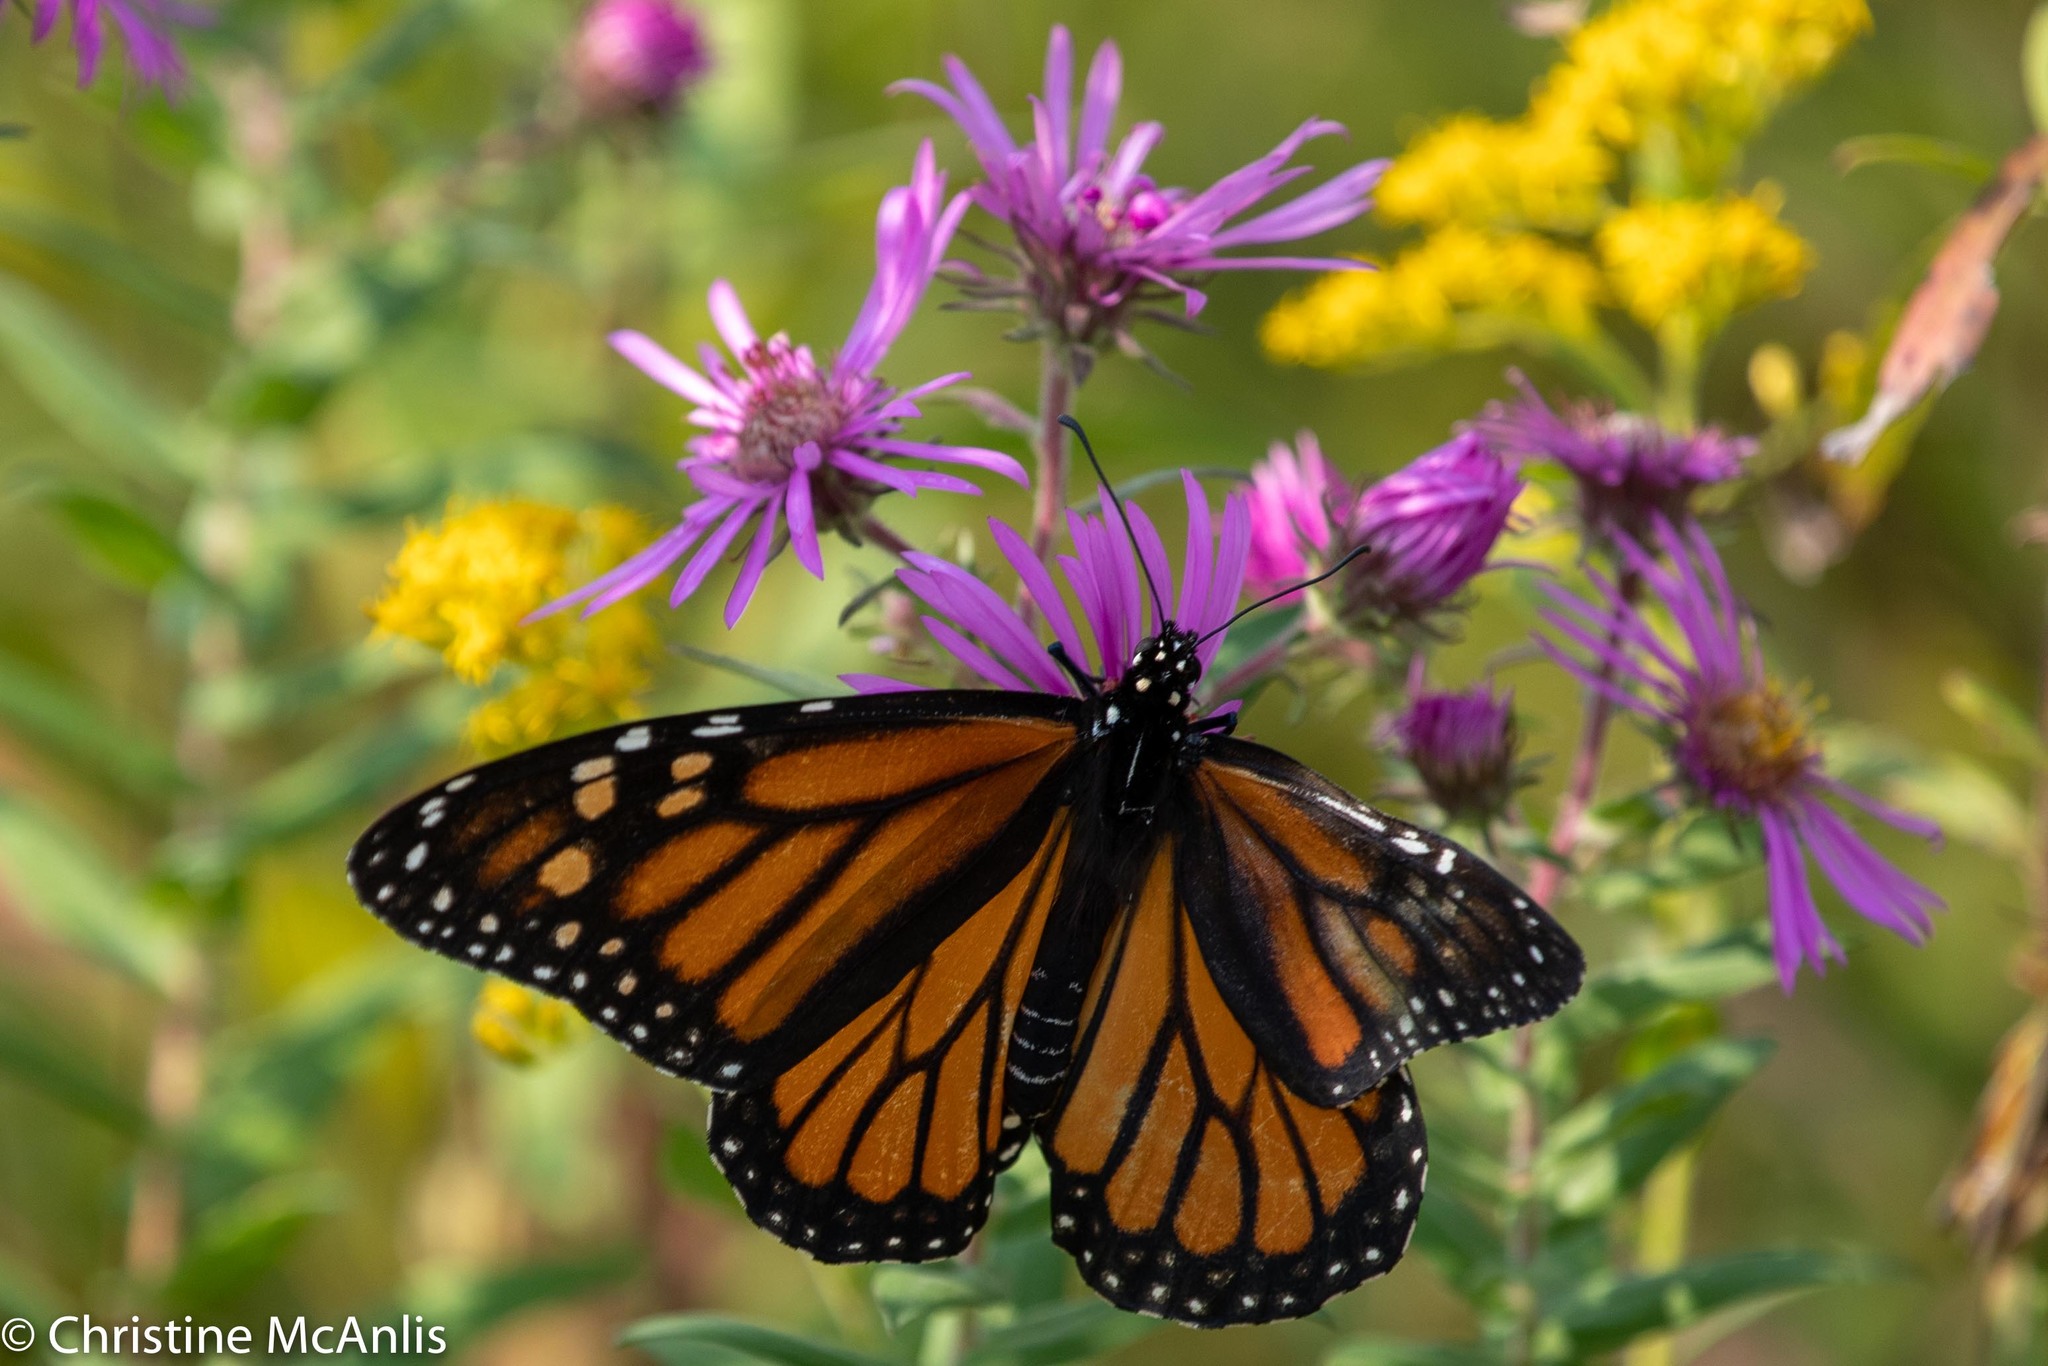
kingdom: Animalia
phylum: Arthropoda
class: Insecta
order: Lepidoptera
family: Nymphalidae
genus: Danaus
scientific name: Danaus plexippus
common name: Monarch
